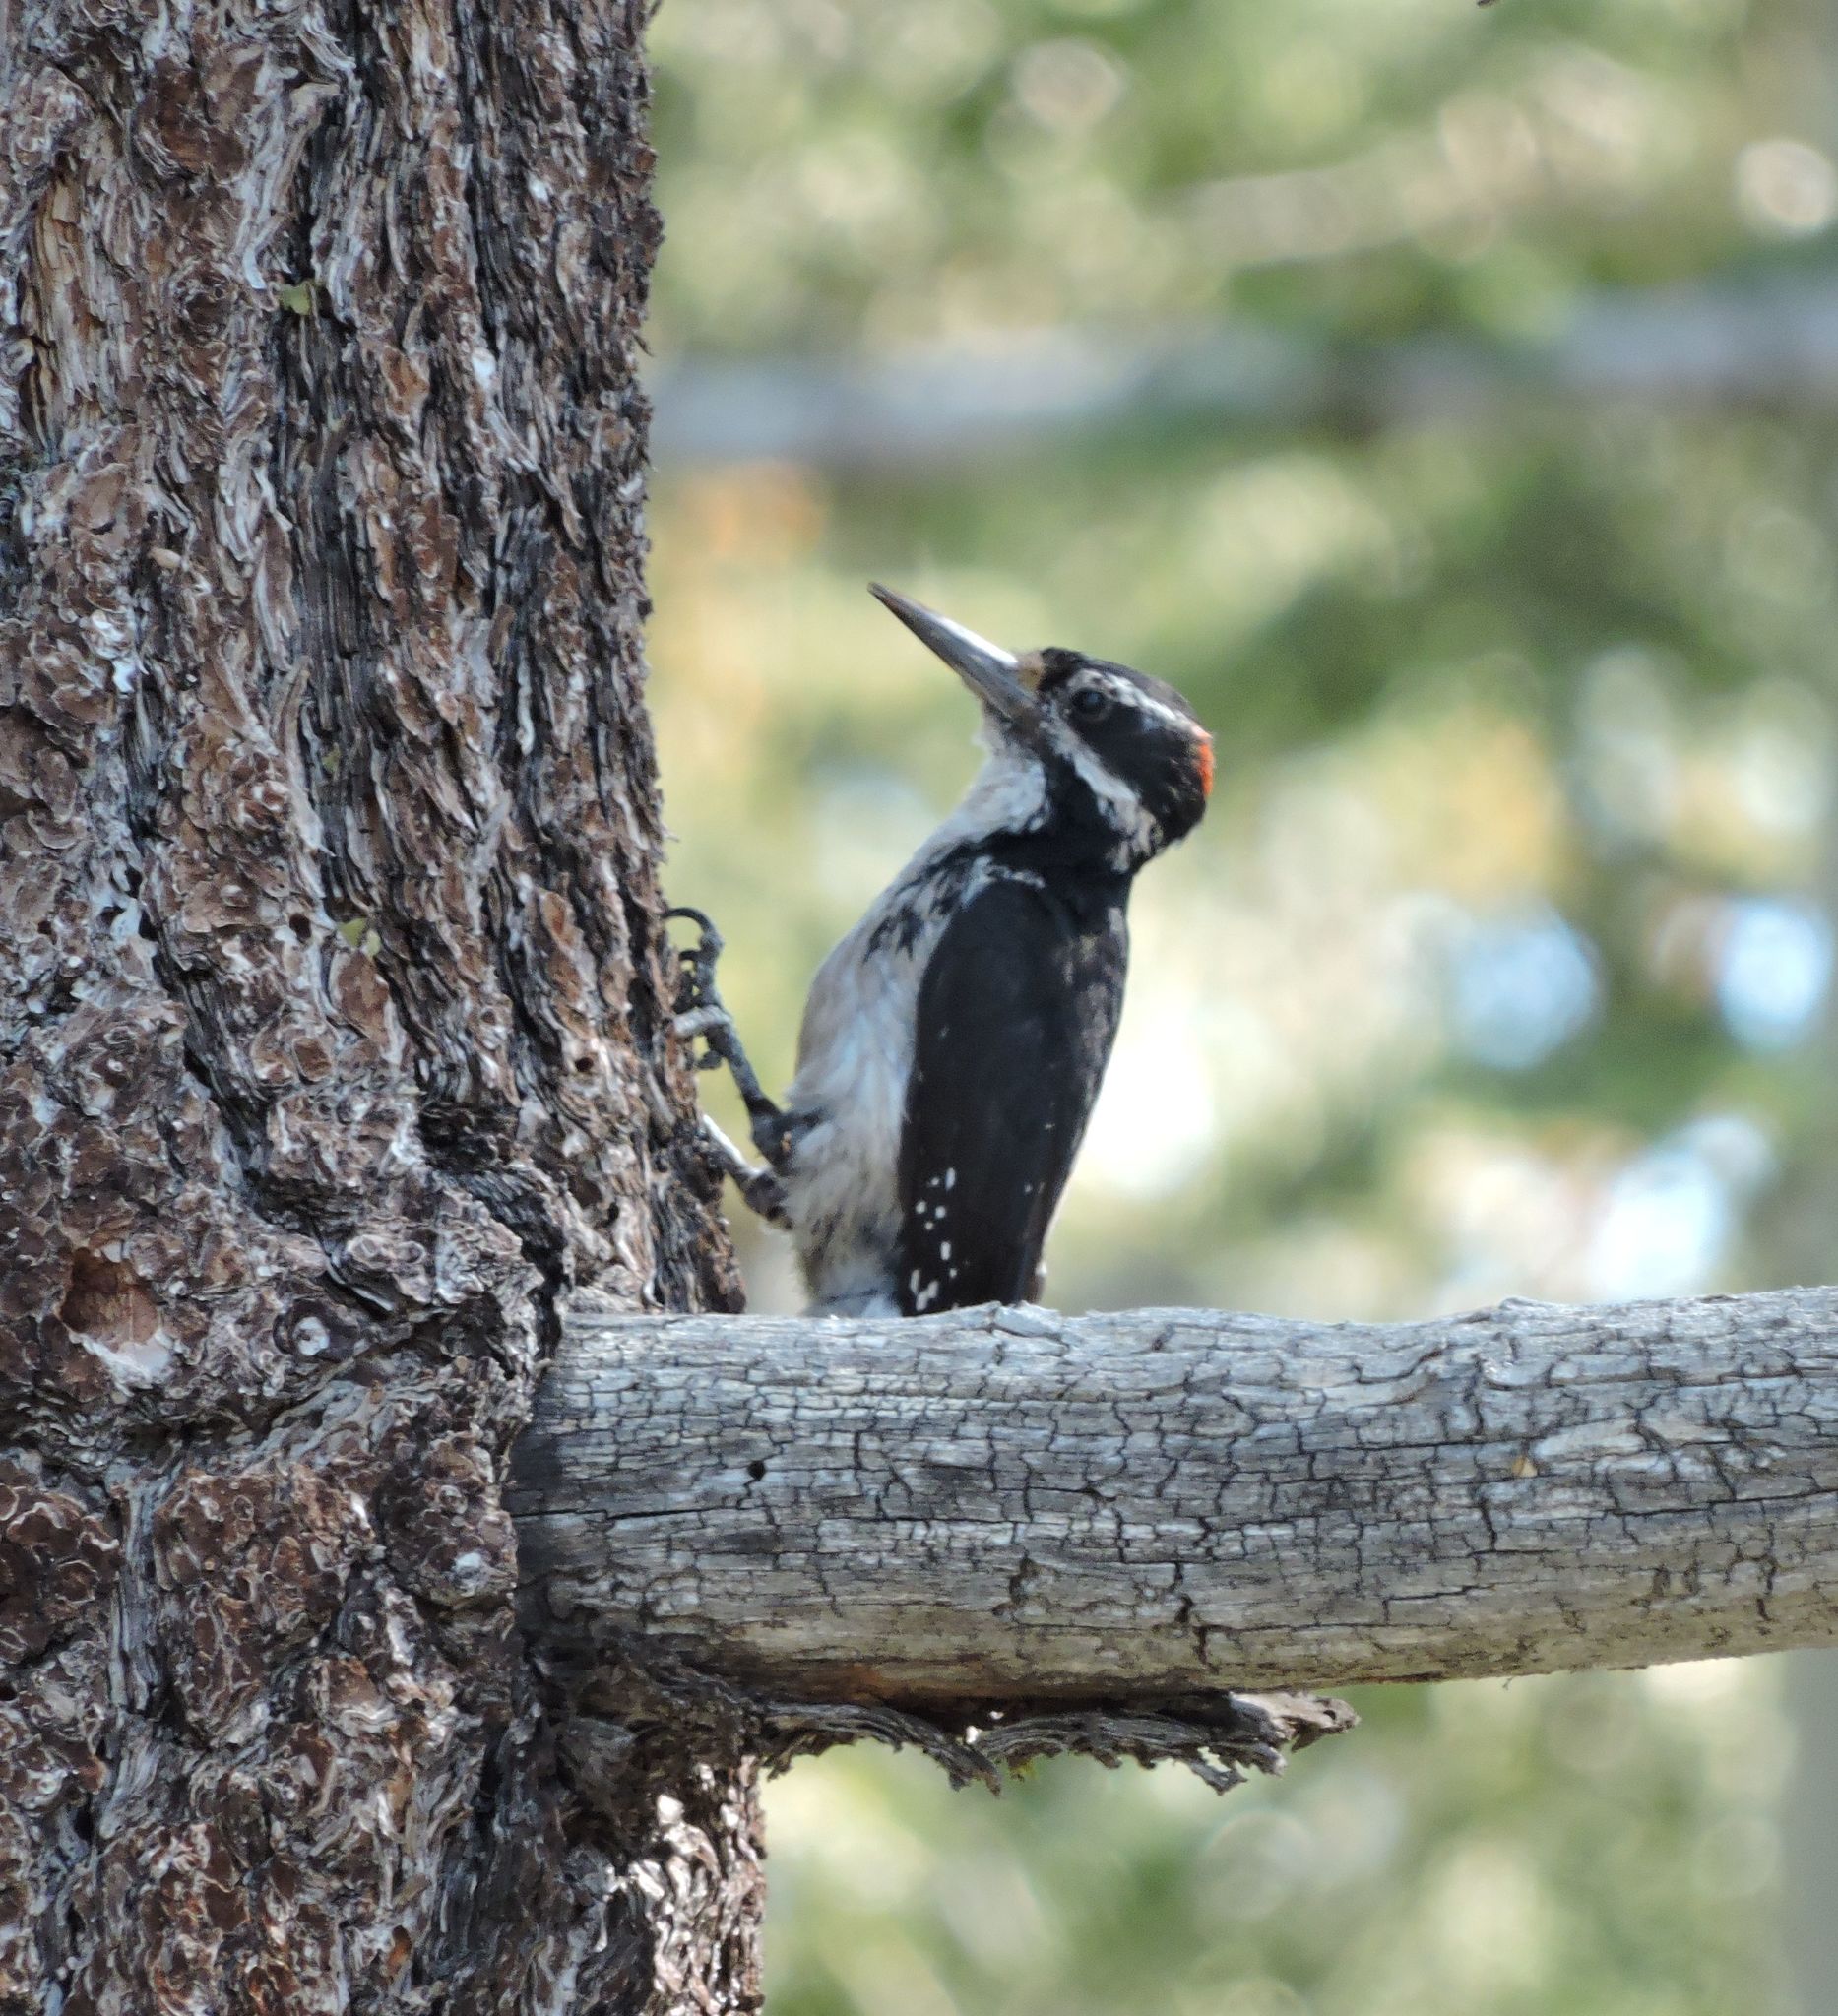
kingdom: Animalia
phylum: Chordata
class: Aves
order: Piciformes
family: Picidae
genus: Leuconotopicus
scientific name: Leuconotopicus villosus
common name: Hairy woodpecker
